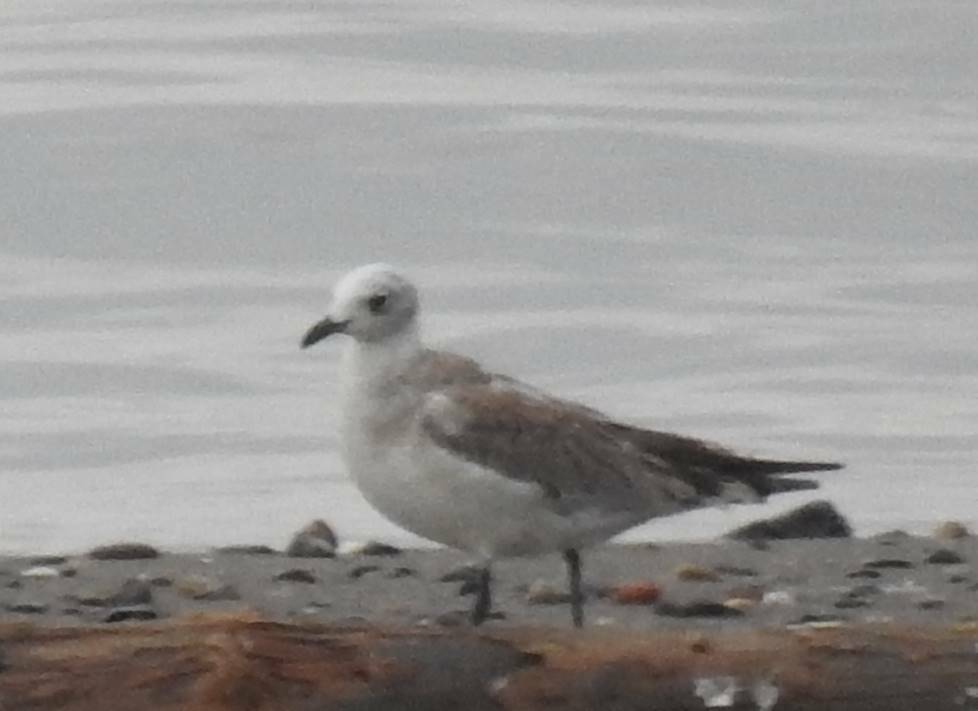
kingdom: Animalia
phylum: Chordata
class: Aves
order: Charadriiformes
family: Laridae
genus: Ichthyaetus
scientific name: Ichthyaetus melanocephalus
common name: Mediterranean gull
